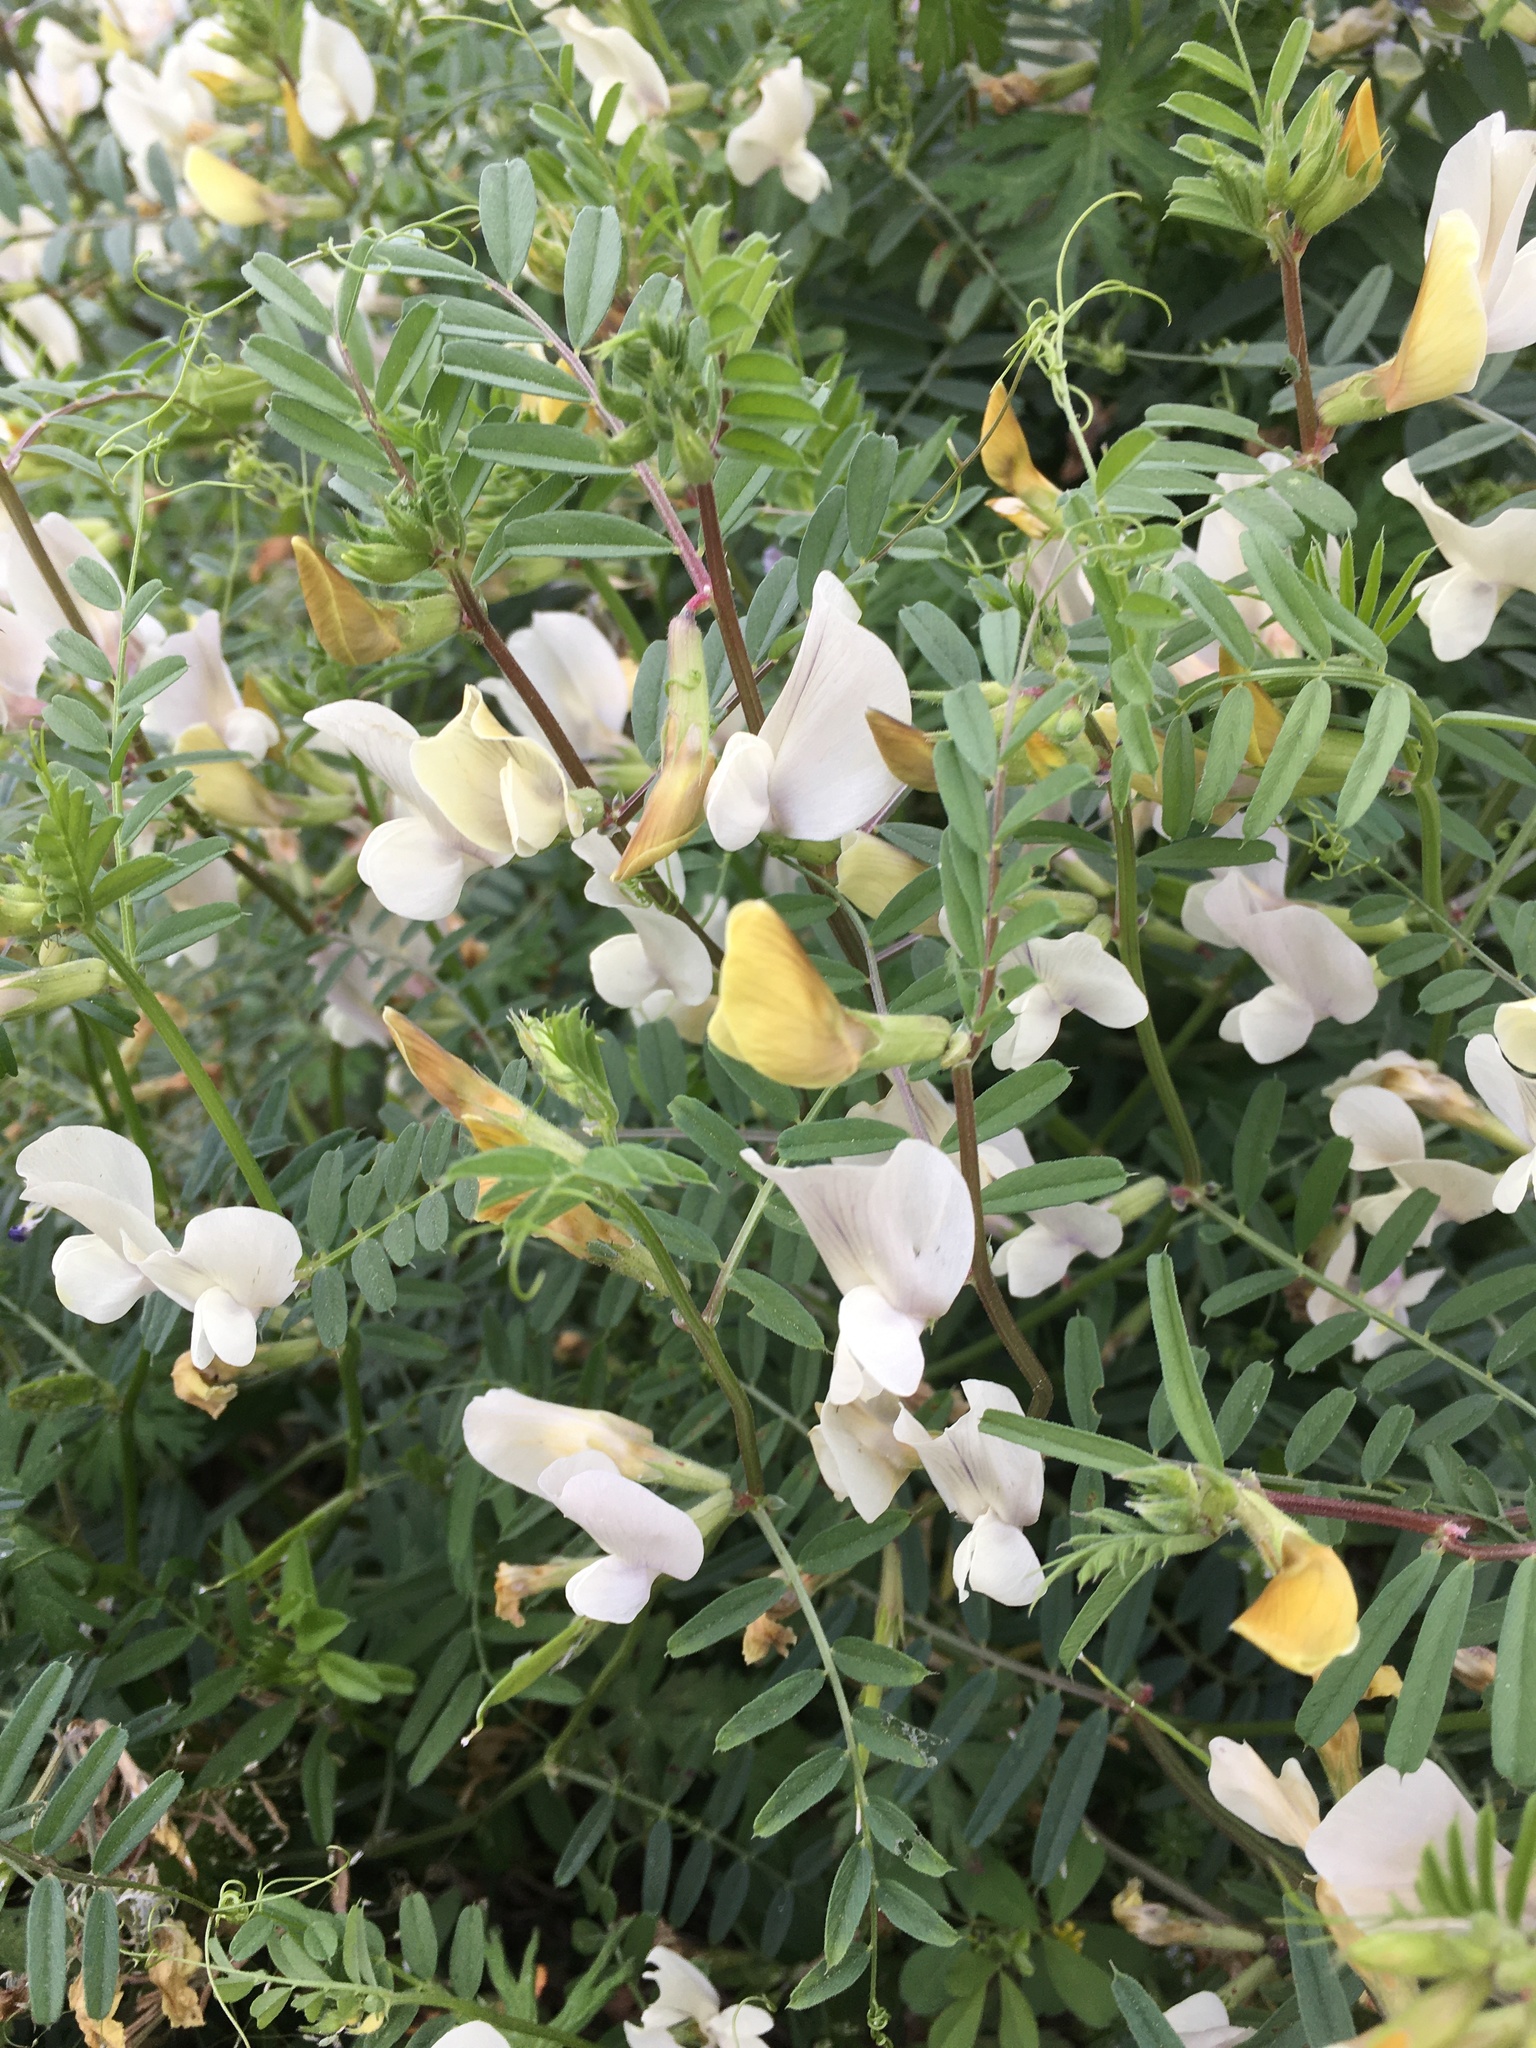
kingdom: Plantae
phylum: Tracheophyta
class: Magnoliopsida
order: Fabales
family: Fabaceae
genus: Vicia
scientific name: Vicia grandiflora
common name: Large yellow vetch
